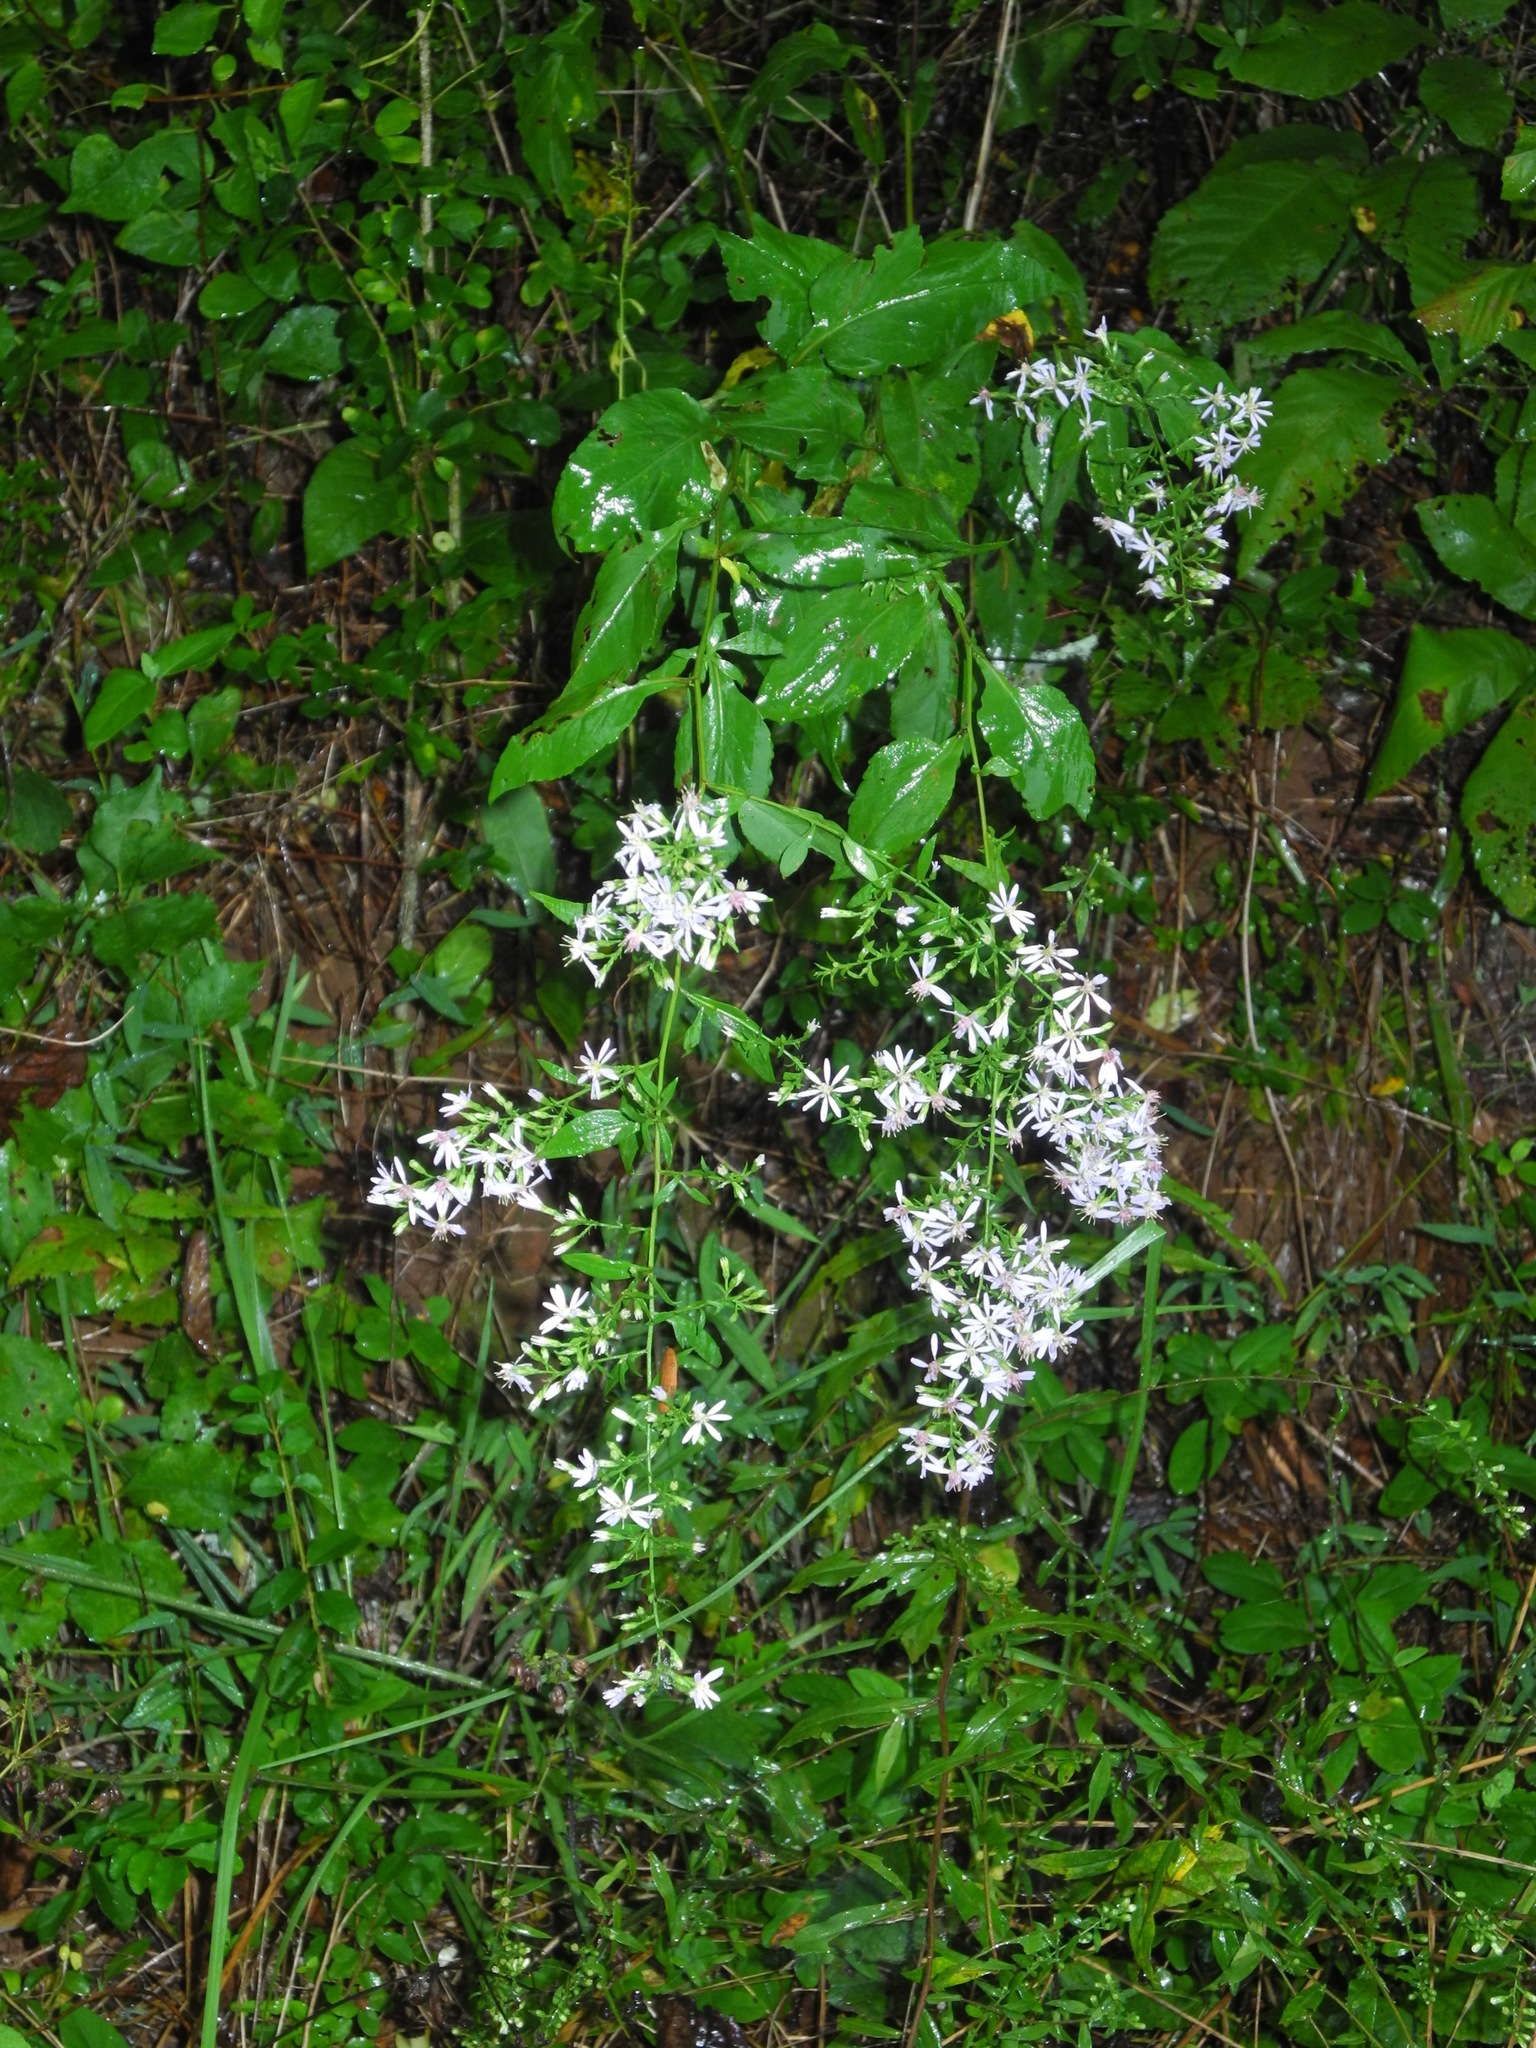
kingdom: Plantae
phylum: Tracheophyta
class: Magnoliopsida
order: Asterales
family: Asteraceae
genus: Symphyotrichum
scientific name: Symphyotrichum undulatum
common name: Clasping heart-leaf aster
